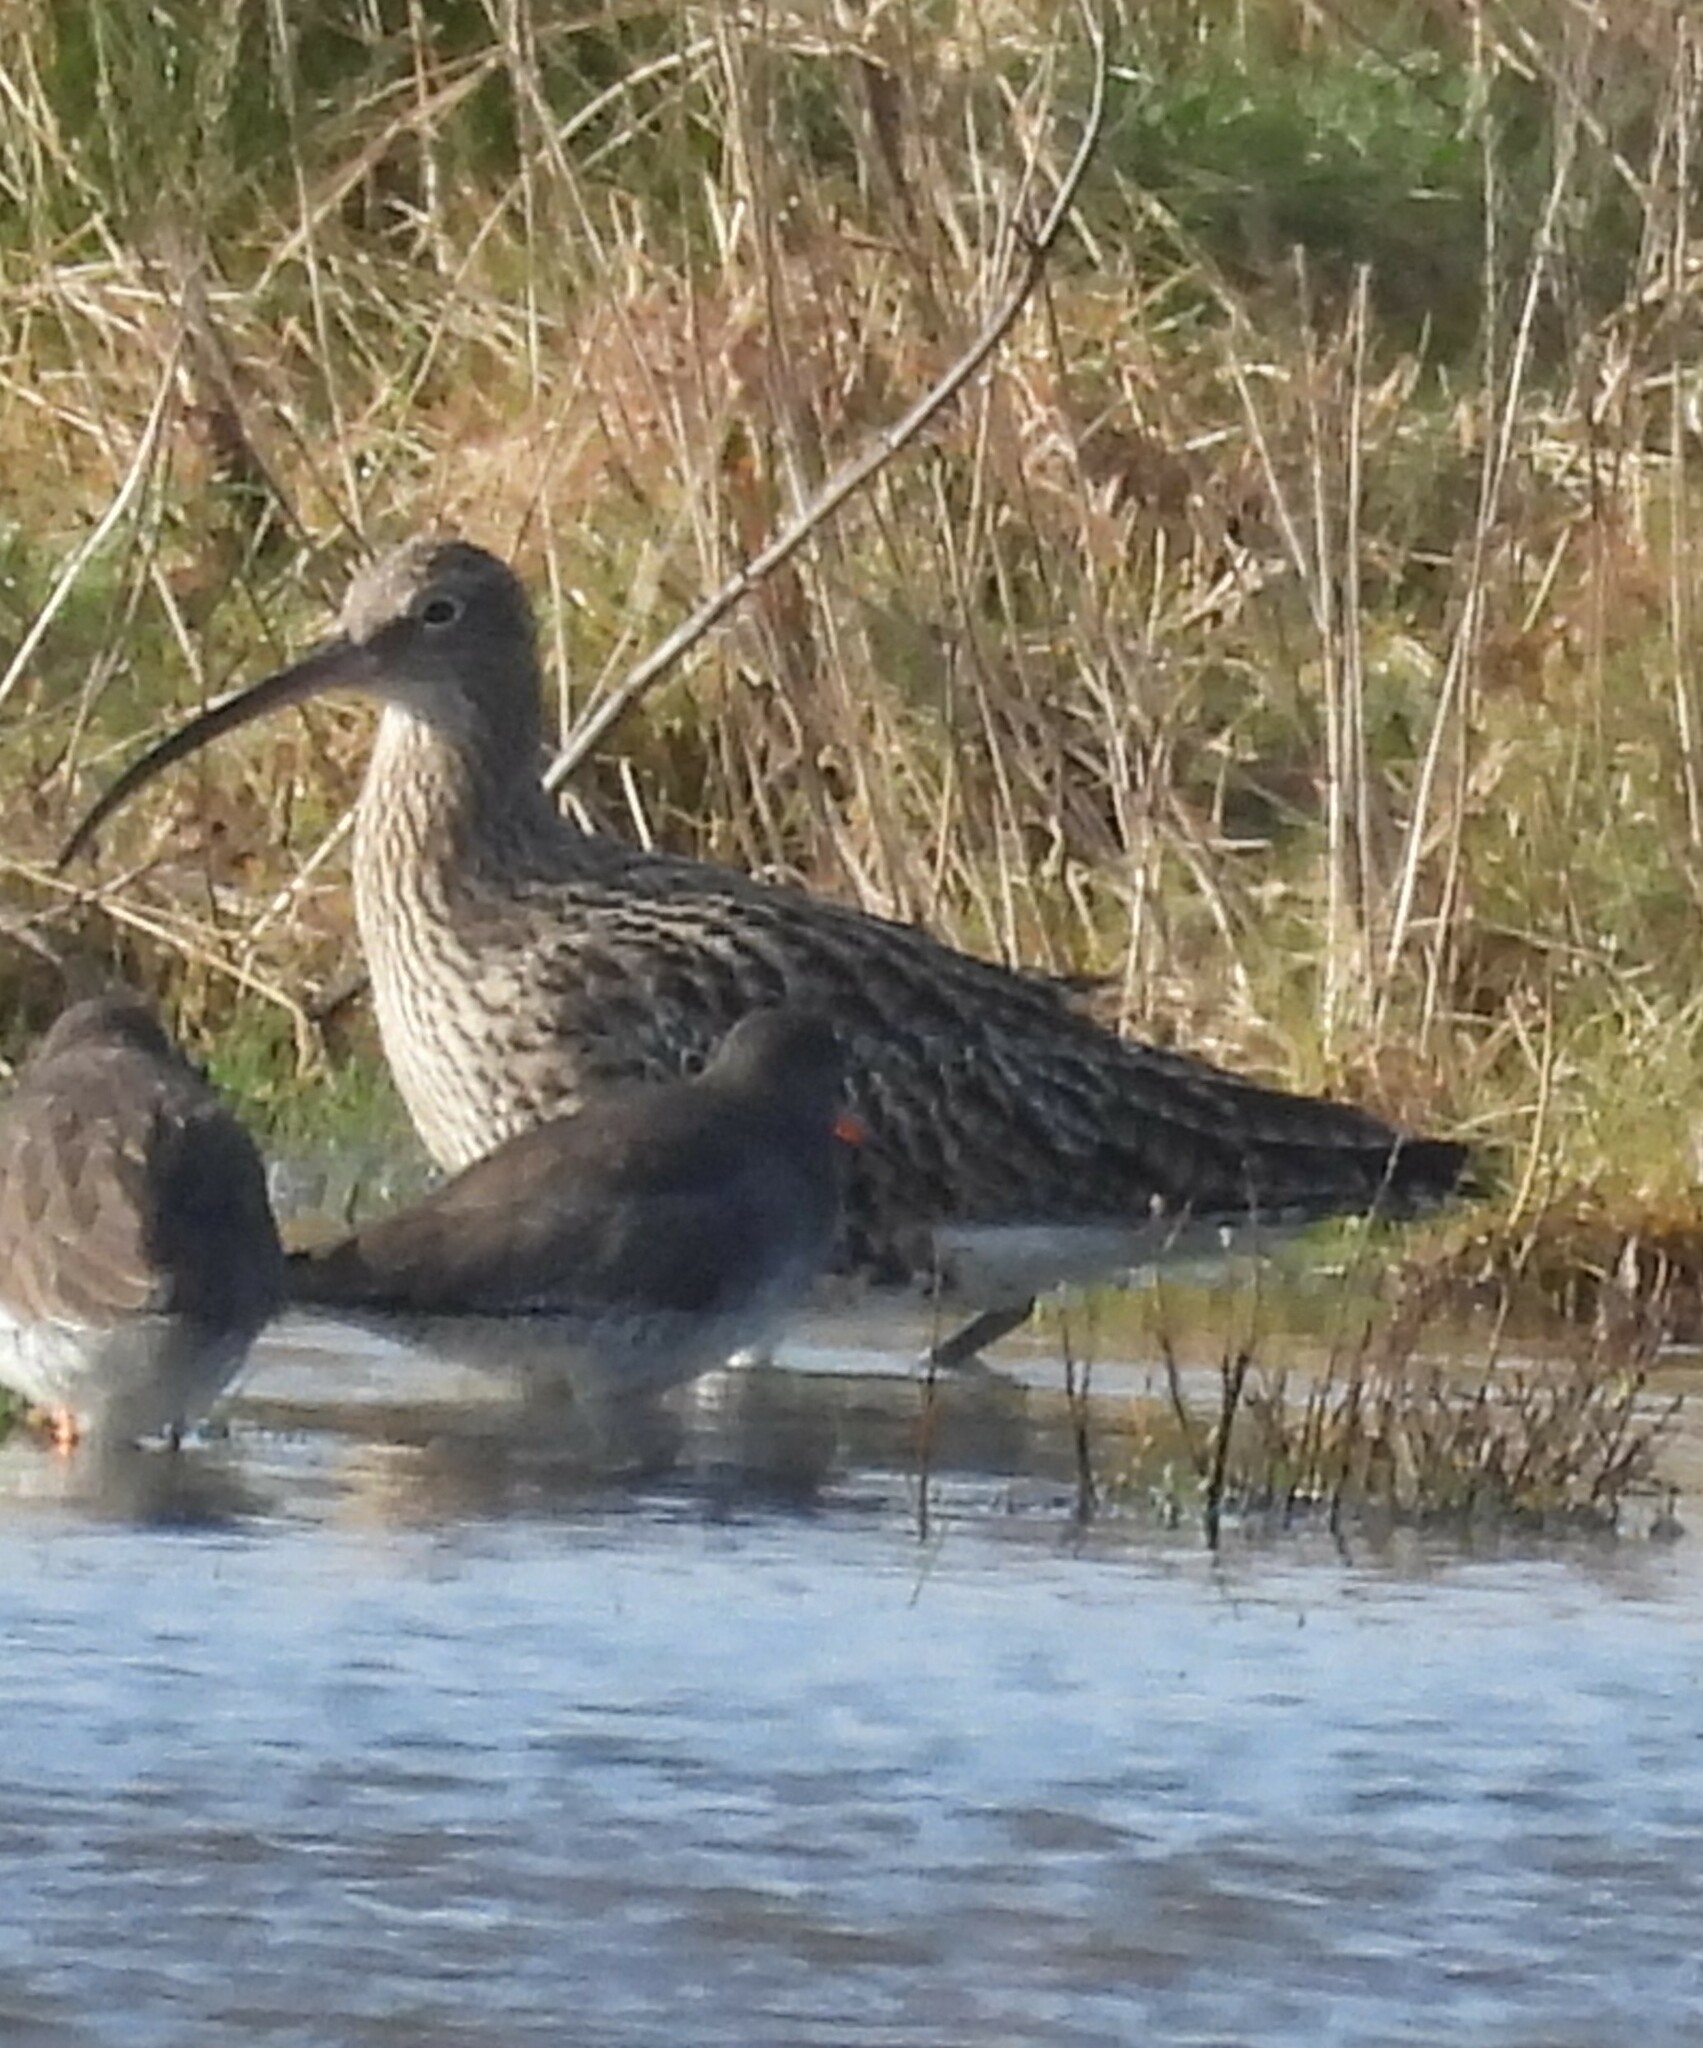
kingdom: Animalia
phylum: Chordata
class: Aves
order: Charadriiformes
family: Scolopacidae
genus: Numenius
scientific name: Numenius arquata
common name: Eurasian curlew
